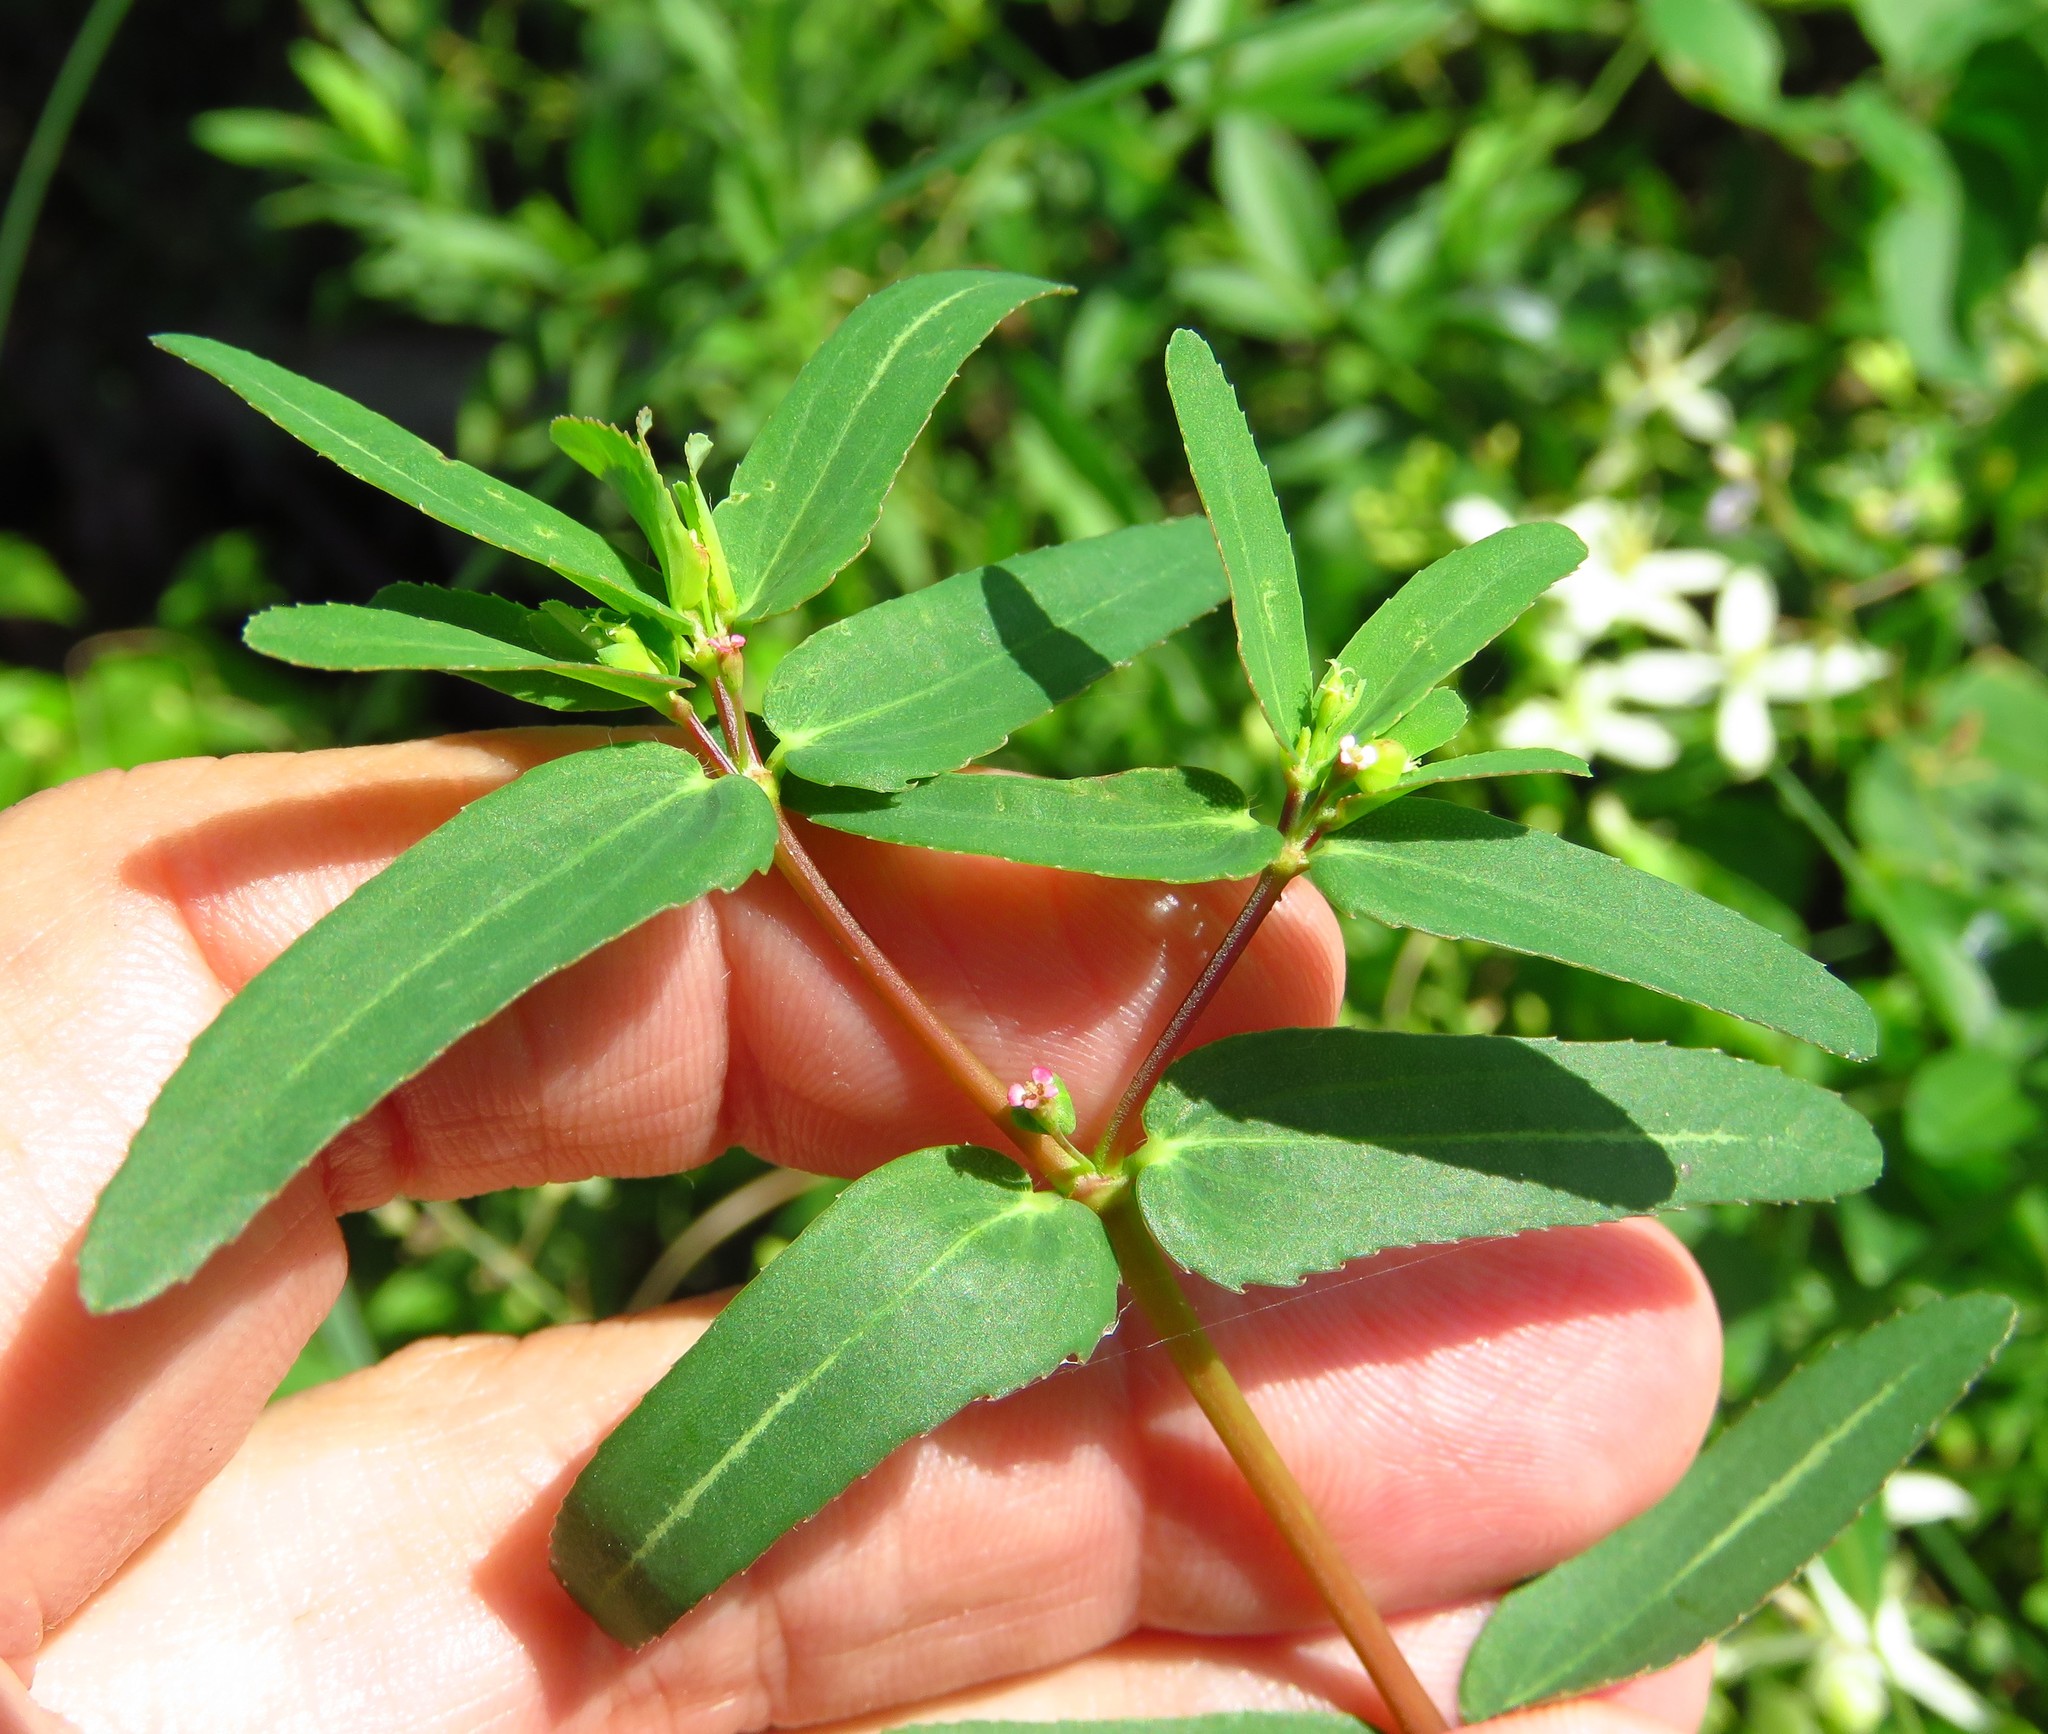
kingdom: Plantae
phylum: Tracheophyta
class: Magnoliopsida
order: Malpighiales
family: Euphorbiaceae
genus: Euphorbia
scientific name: Euphorbia nutans
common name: Eyebane
